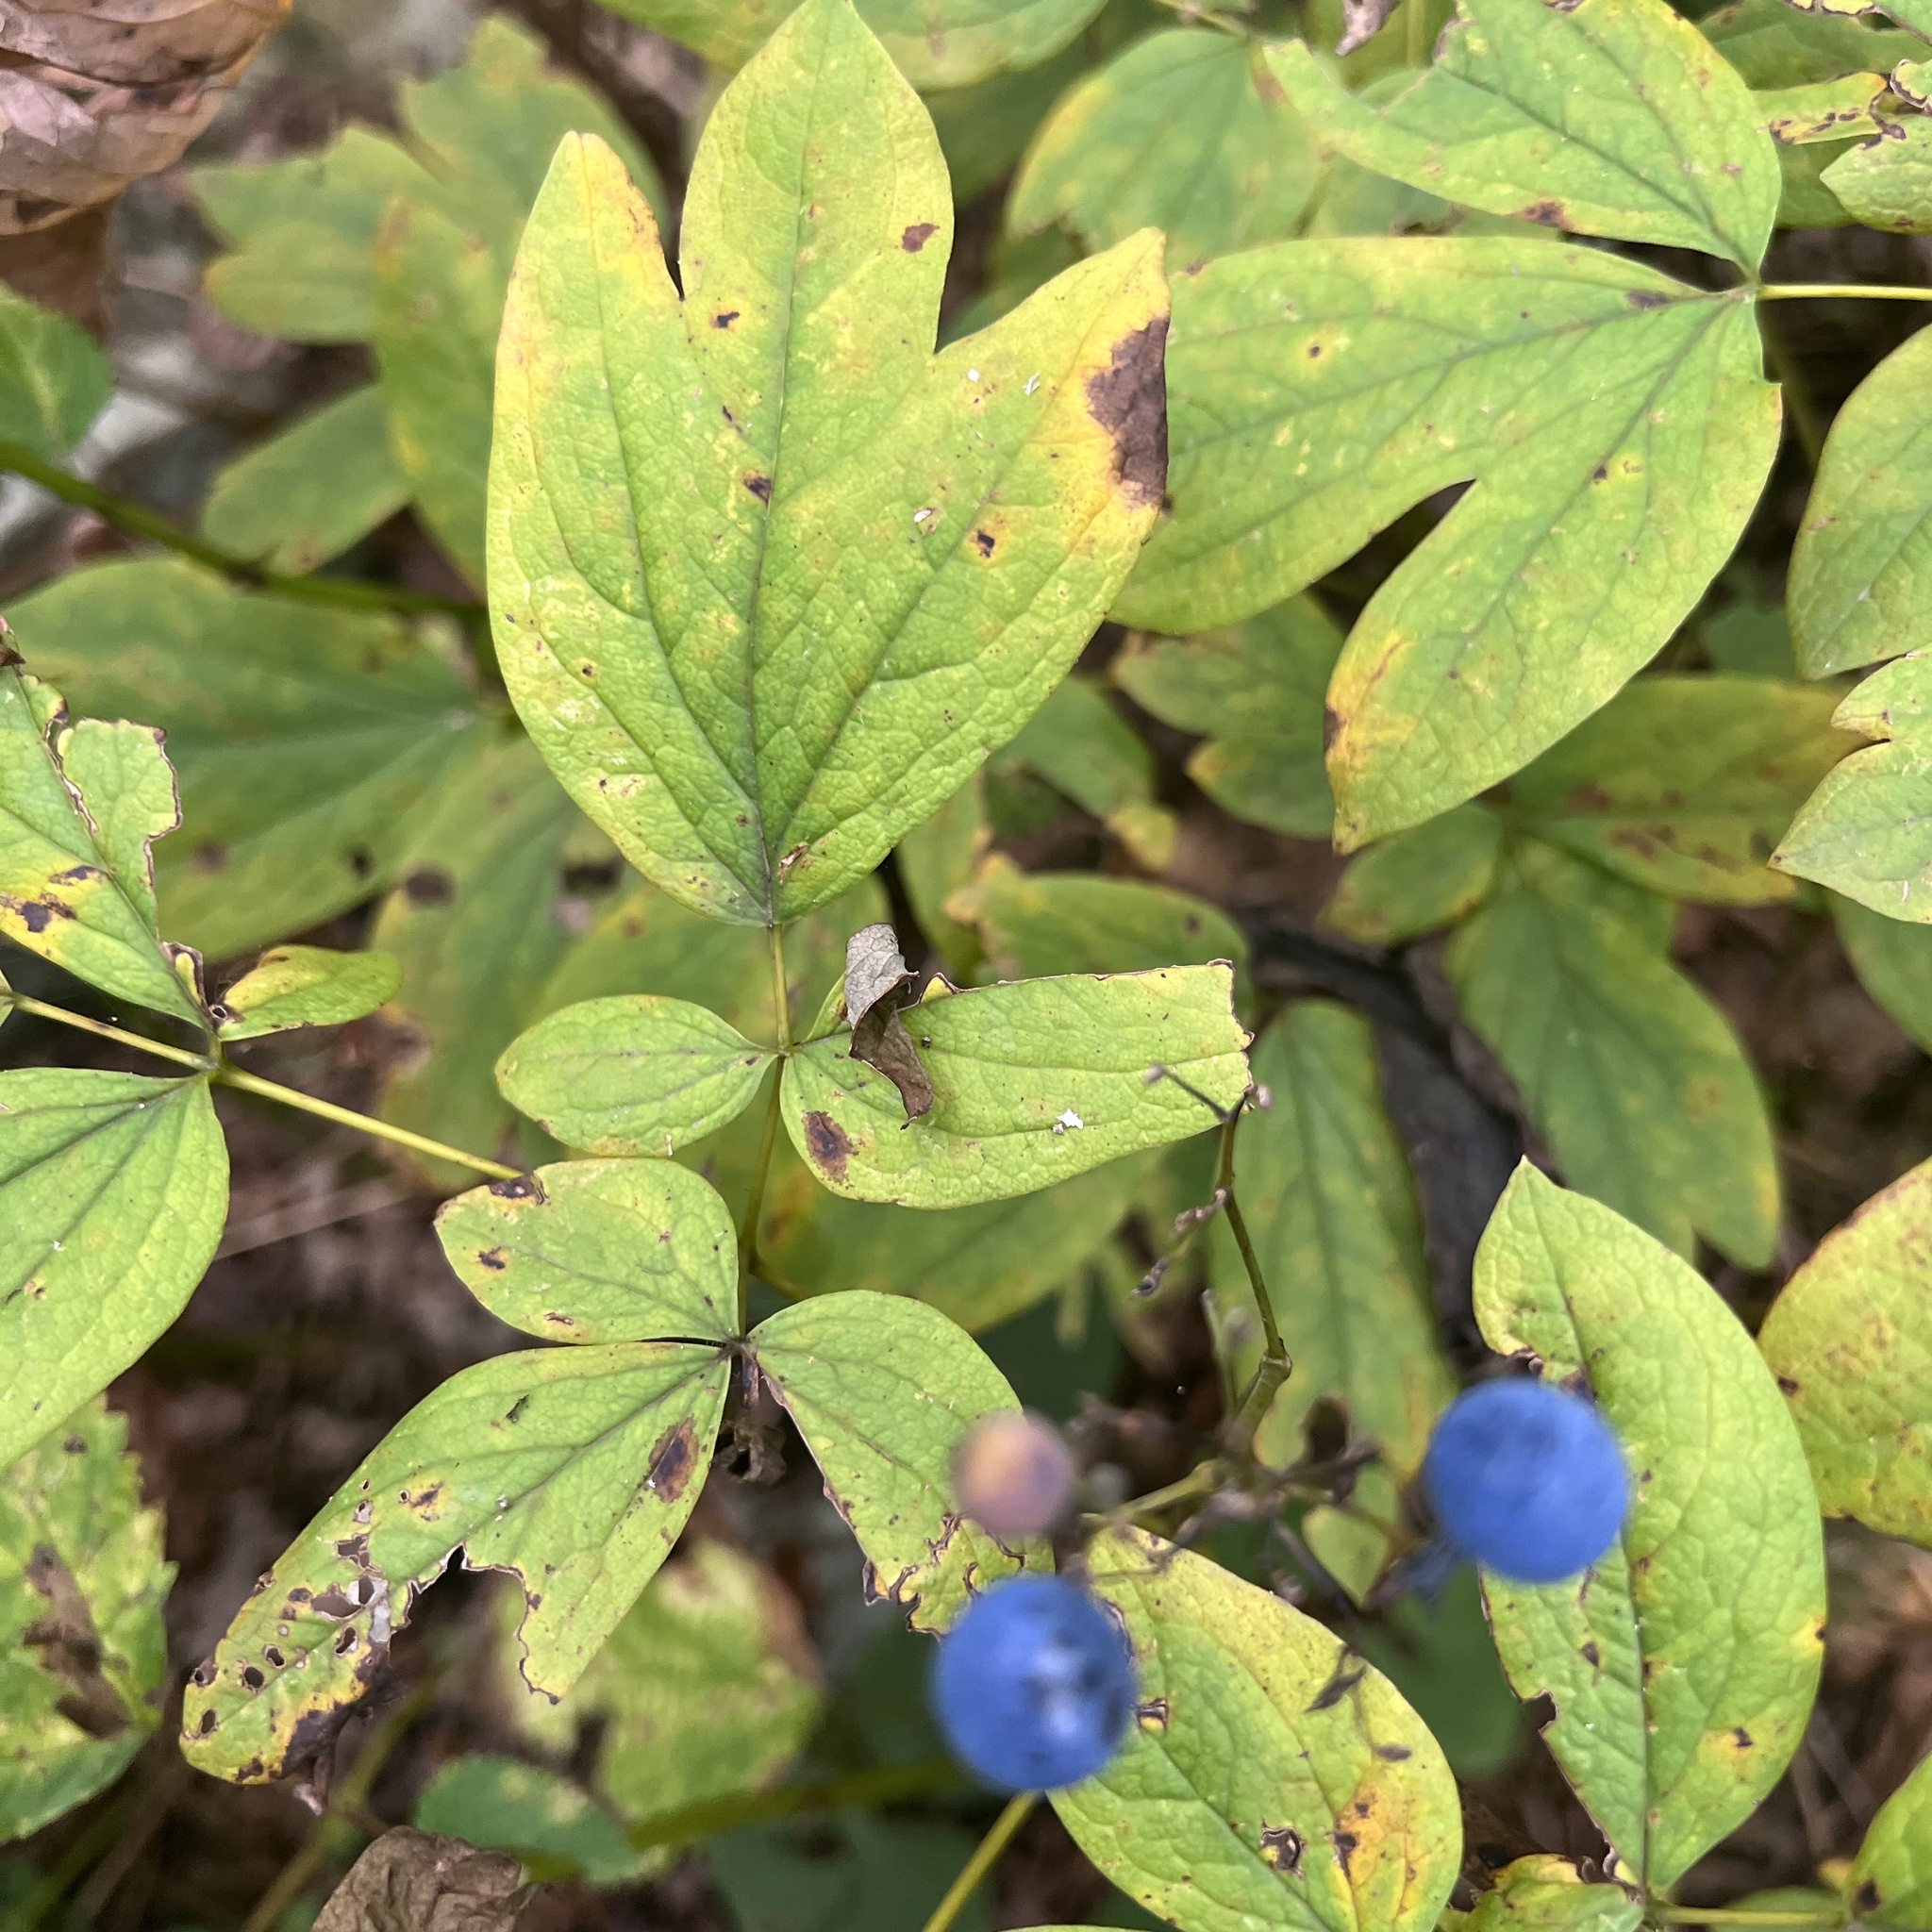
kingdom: Plantae
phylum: Tracheophyta
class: Magnoliopsida
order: Ranunculales
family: Berberidaceae
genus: Caulophyllum
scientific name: Caulophyllum thalictroides
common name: Blue cohosh
